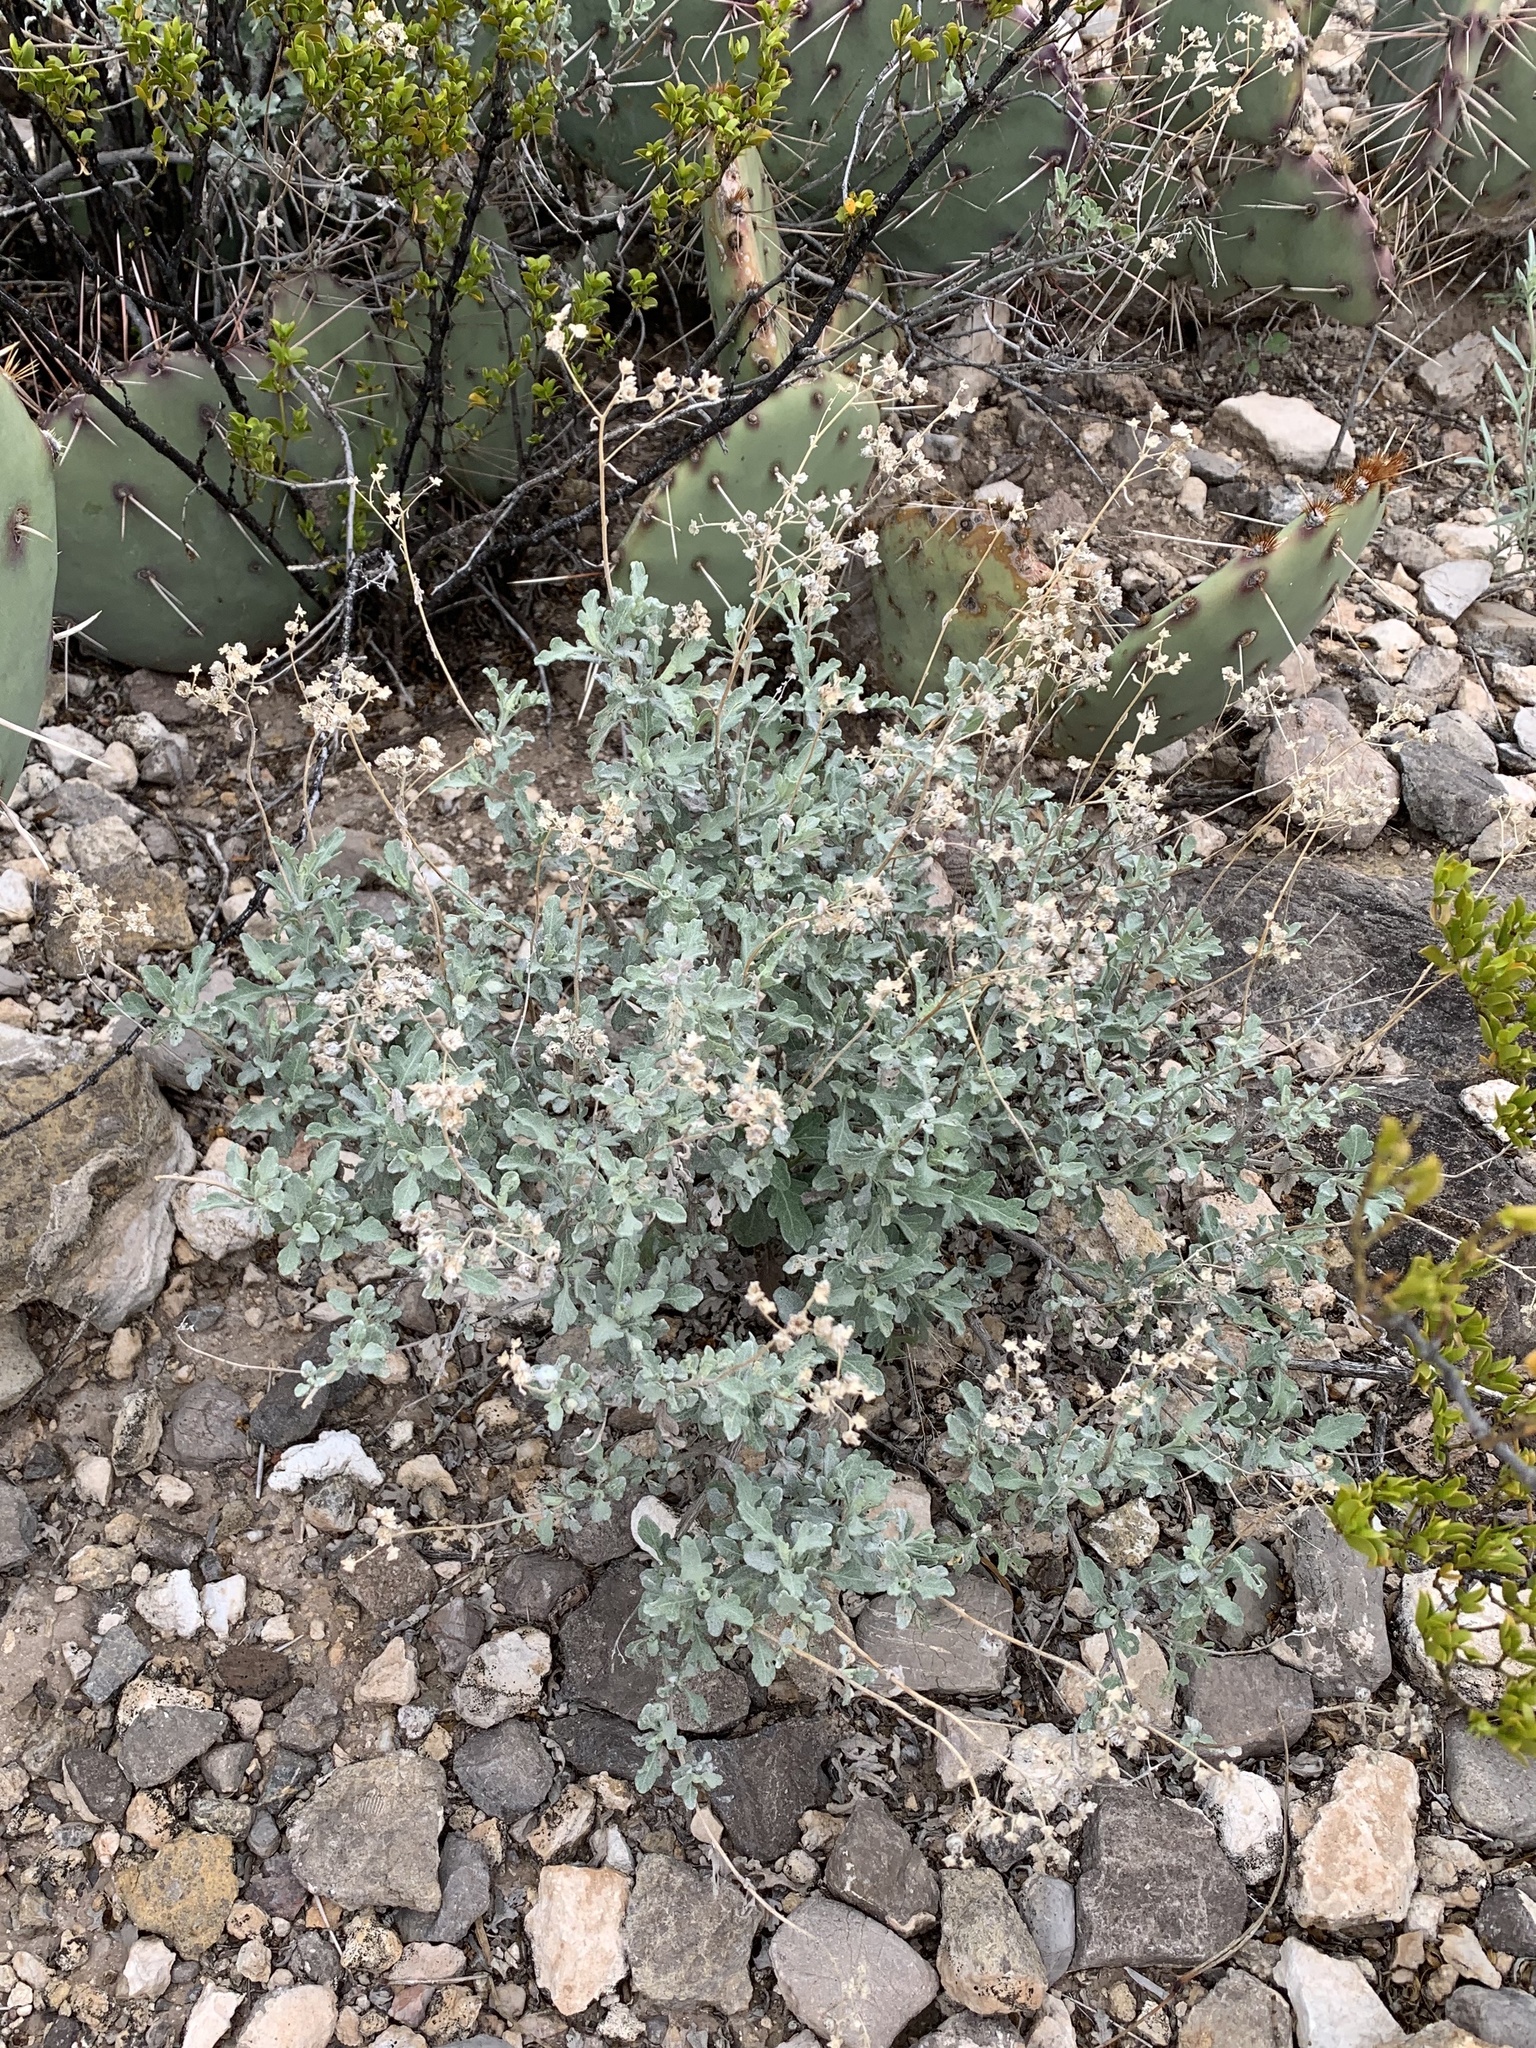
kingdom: Plantae
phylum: Tracheophyta
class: Magnoliopsida
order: Asterales
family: Asteraceae
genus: Parthenium
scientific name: Parthenium incanum
